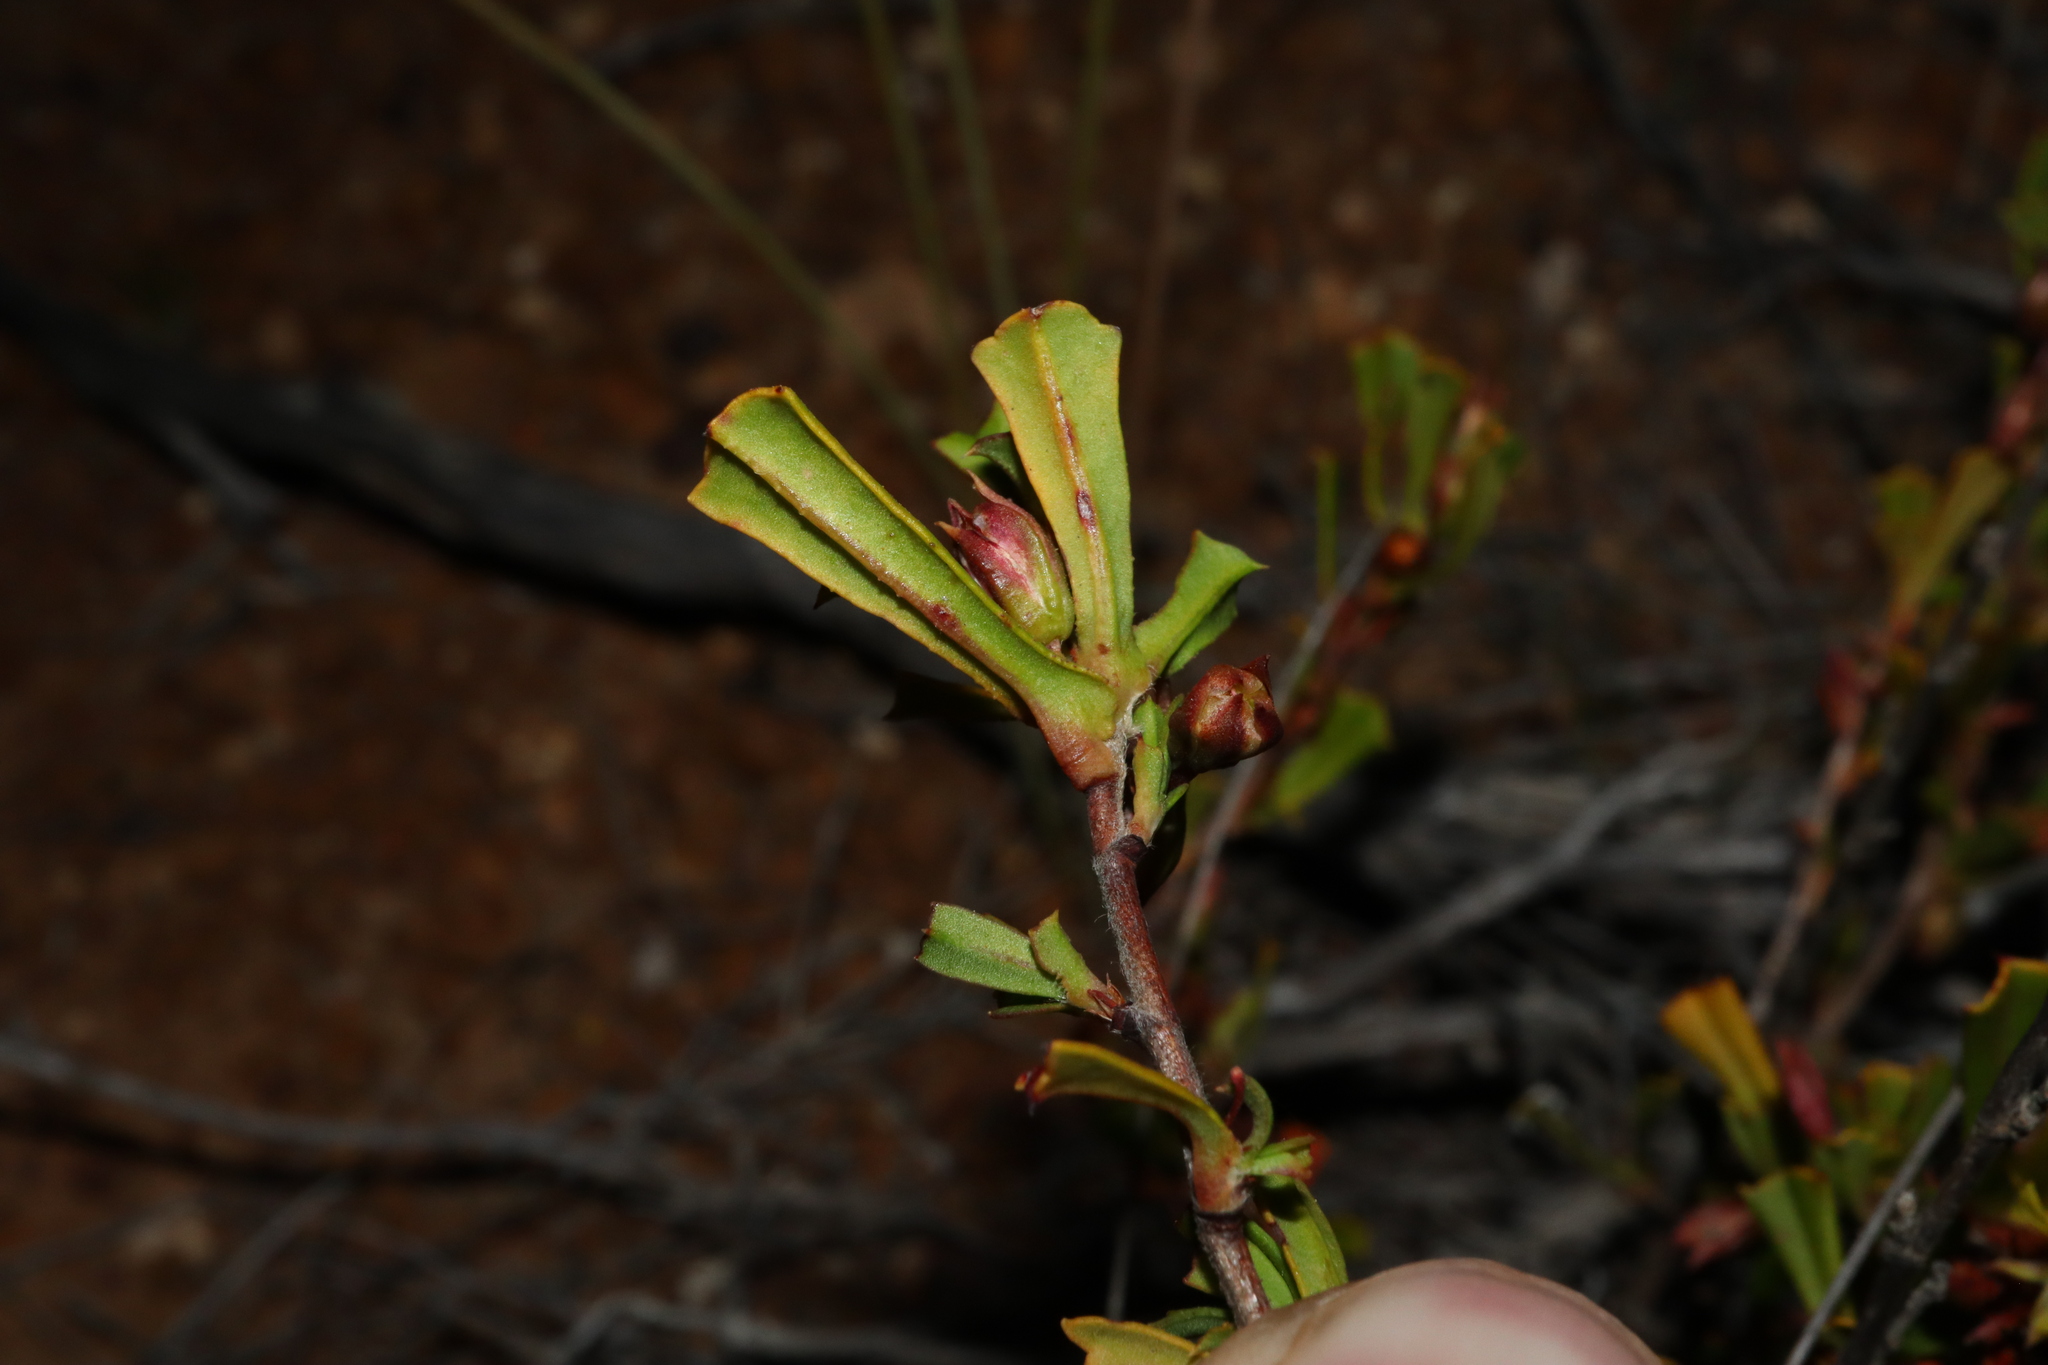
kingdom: Plantae
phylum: Tracheophyta
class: Magnoliopsida
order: Dilleniales
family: Dilleniaceae
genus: Hibbertia
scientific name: Hibbertia racemosa
